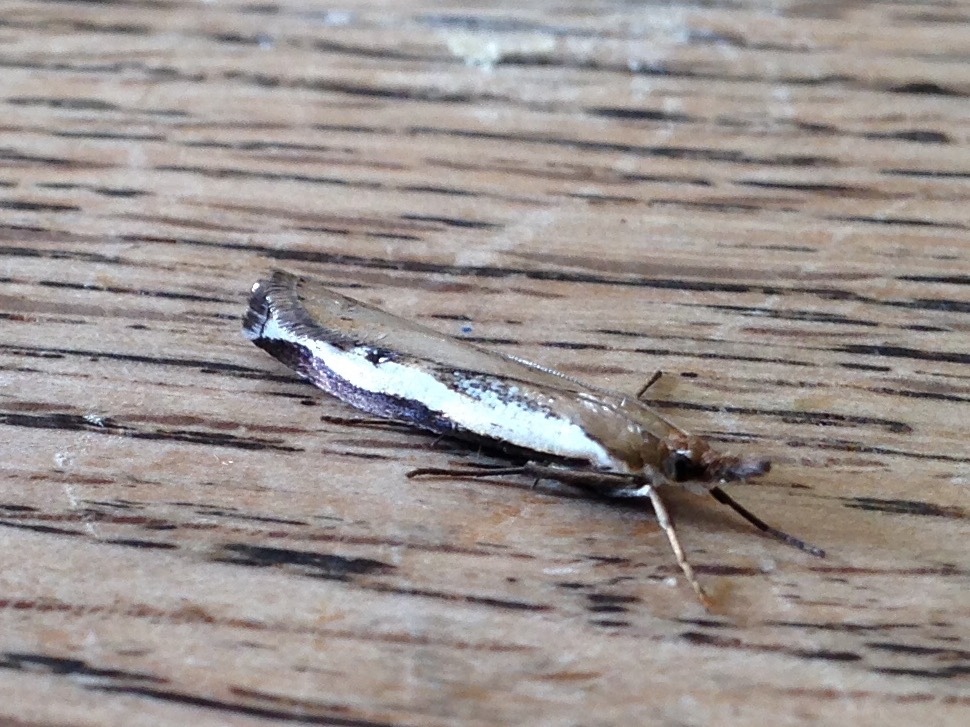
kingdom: Animalia
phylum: Arthropoda
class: Insecta
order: Lepidoptera
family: Crambidae
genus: Orocrambus
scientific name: Orocrambus flexuosellus
